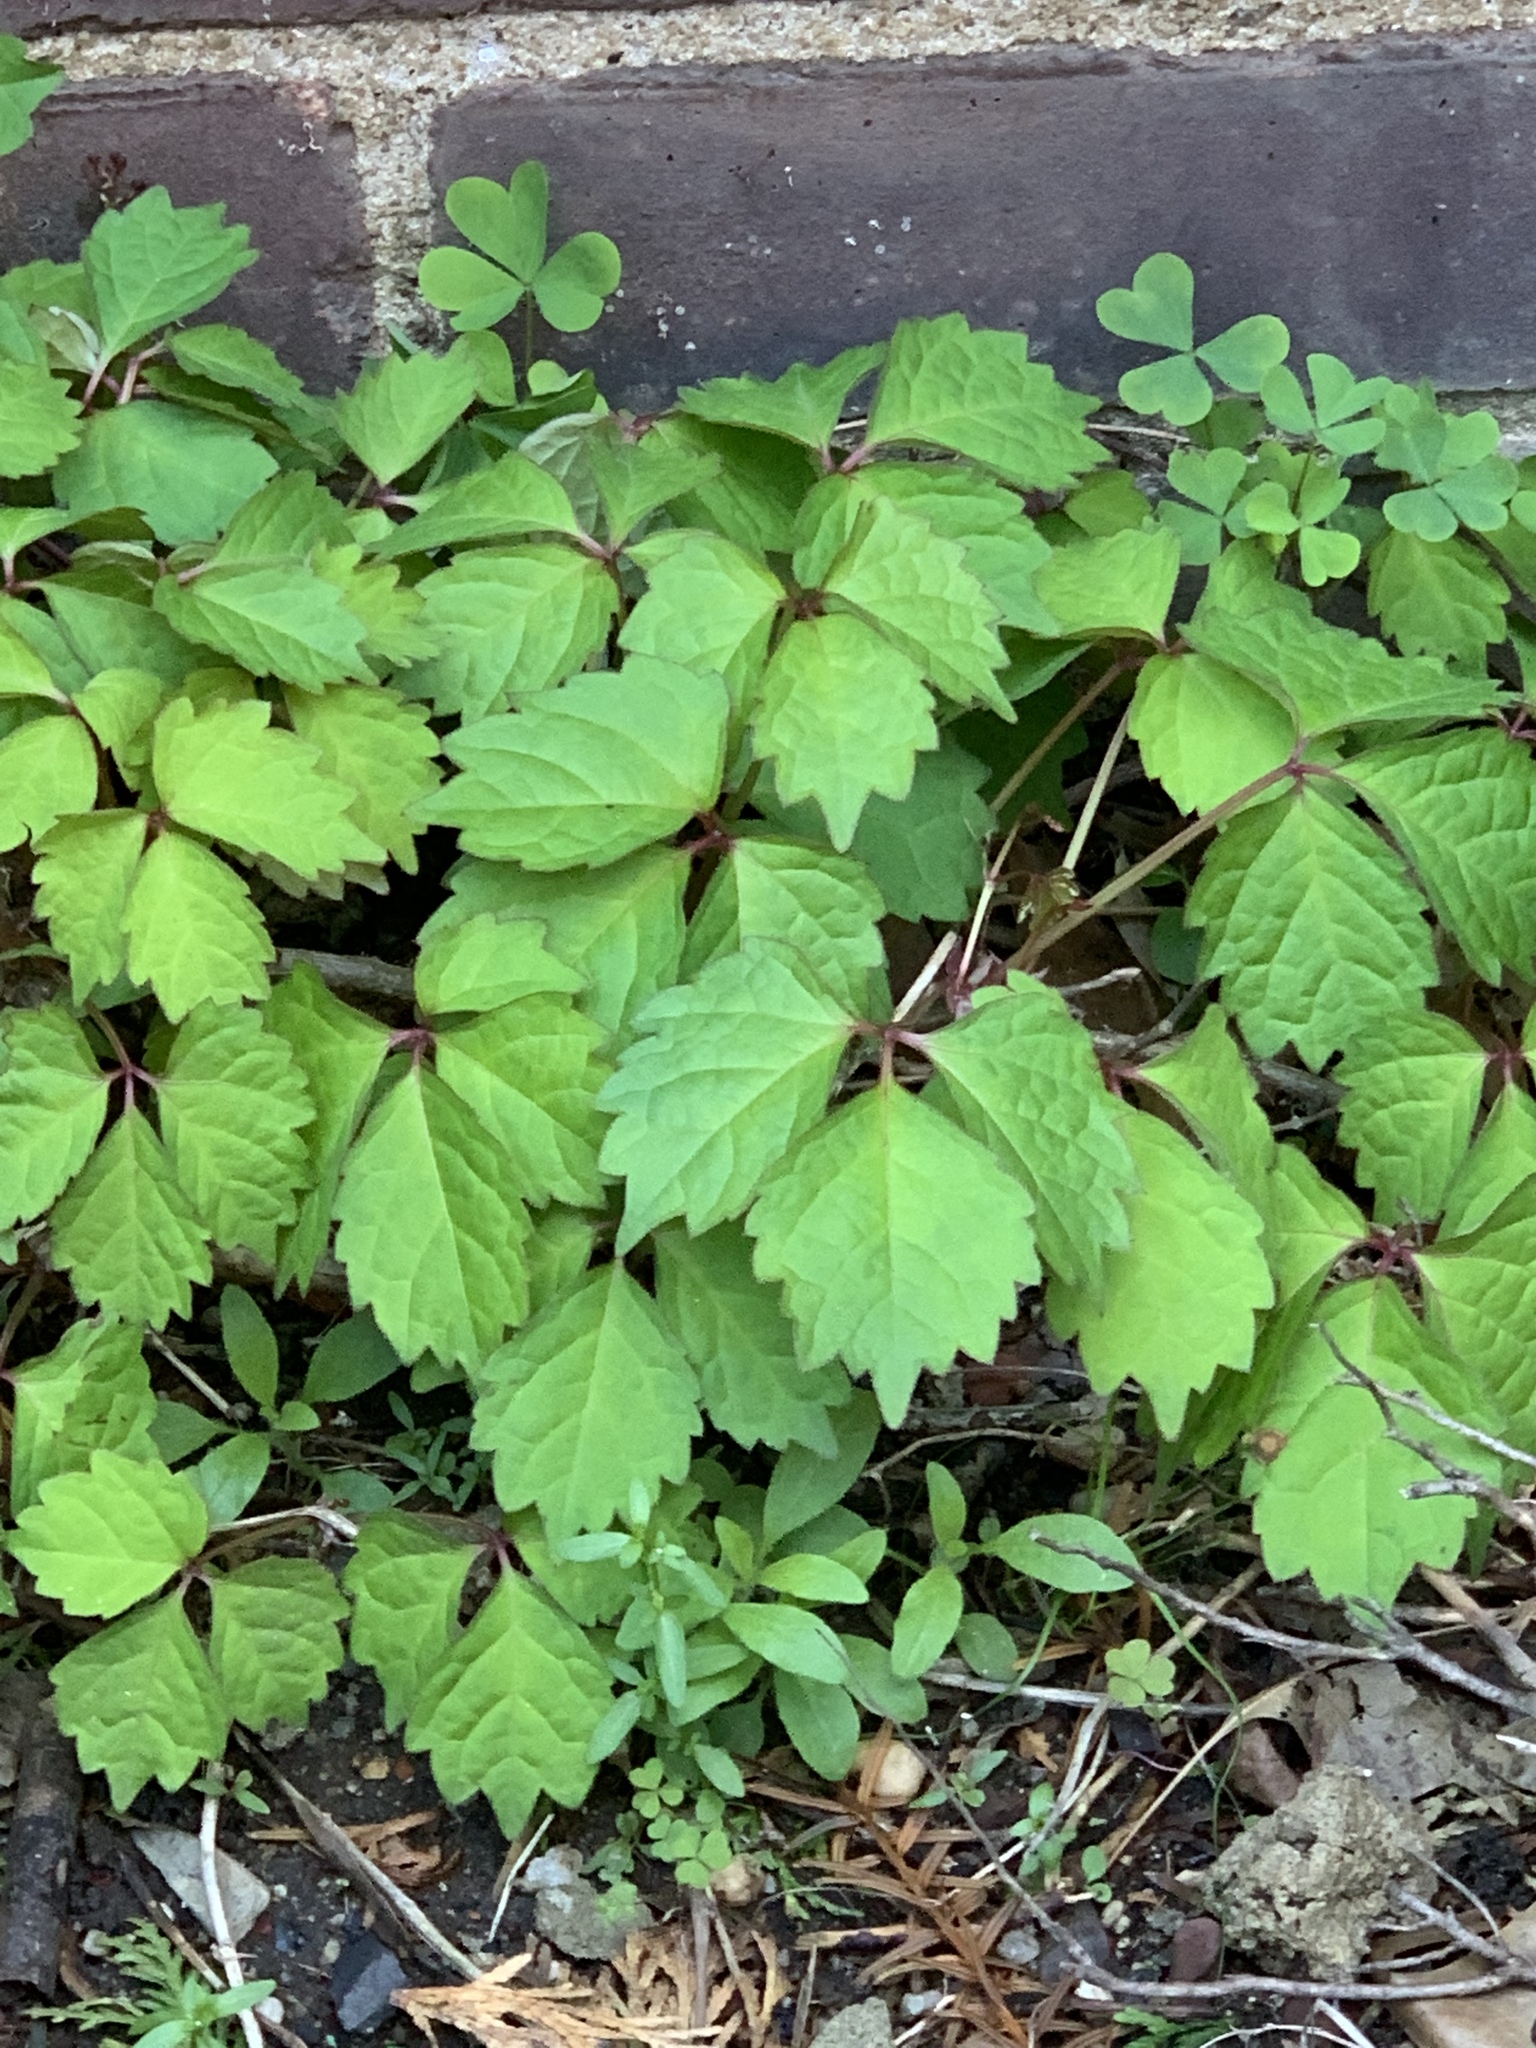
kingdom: Plantae
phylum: Tracheophyta
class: Magnoliopsida
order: Vitales
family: Vitaceae
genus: Parthenocissus
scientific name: Parthenocissus tricuspidata
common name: Boston ivy
